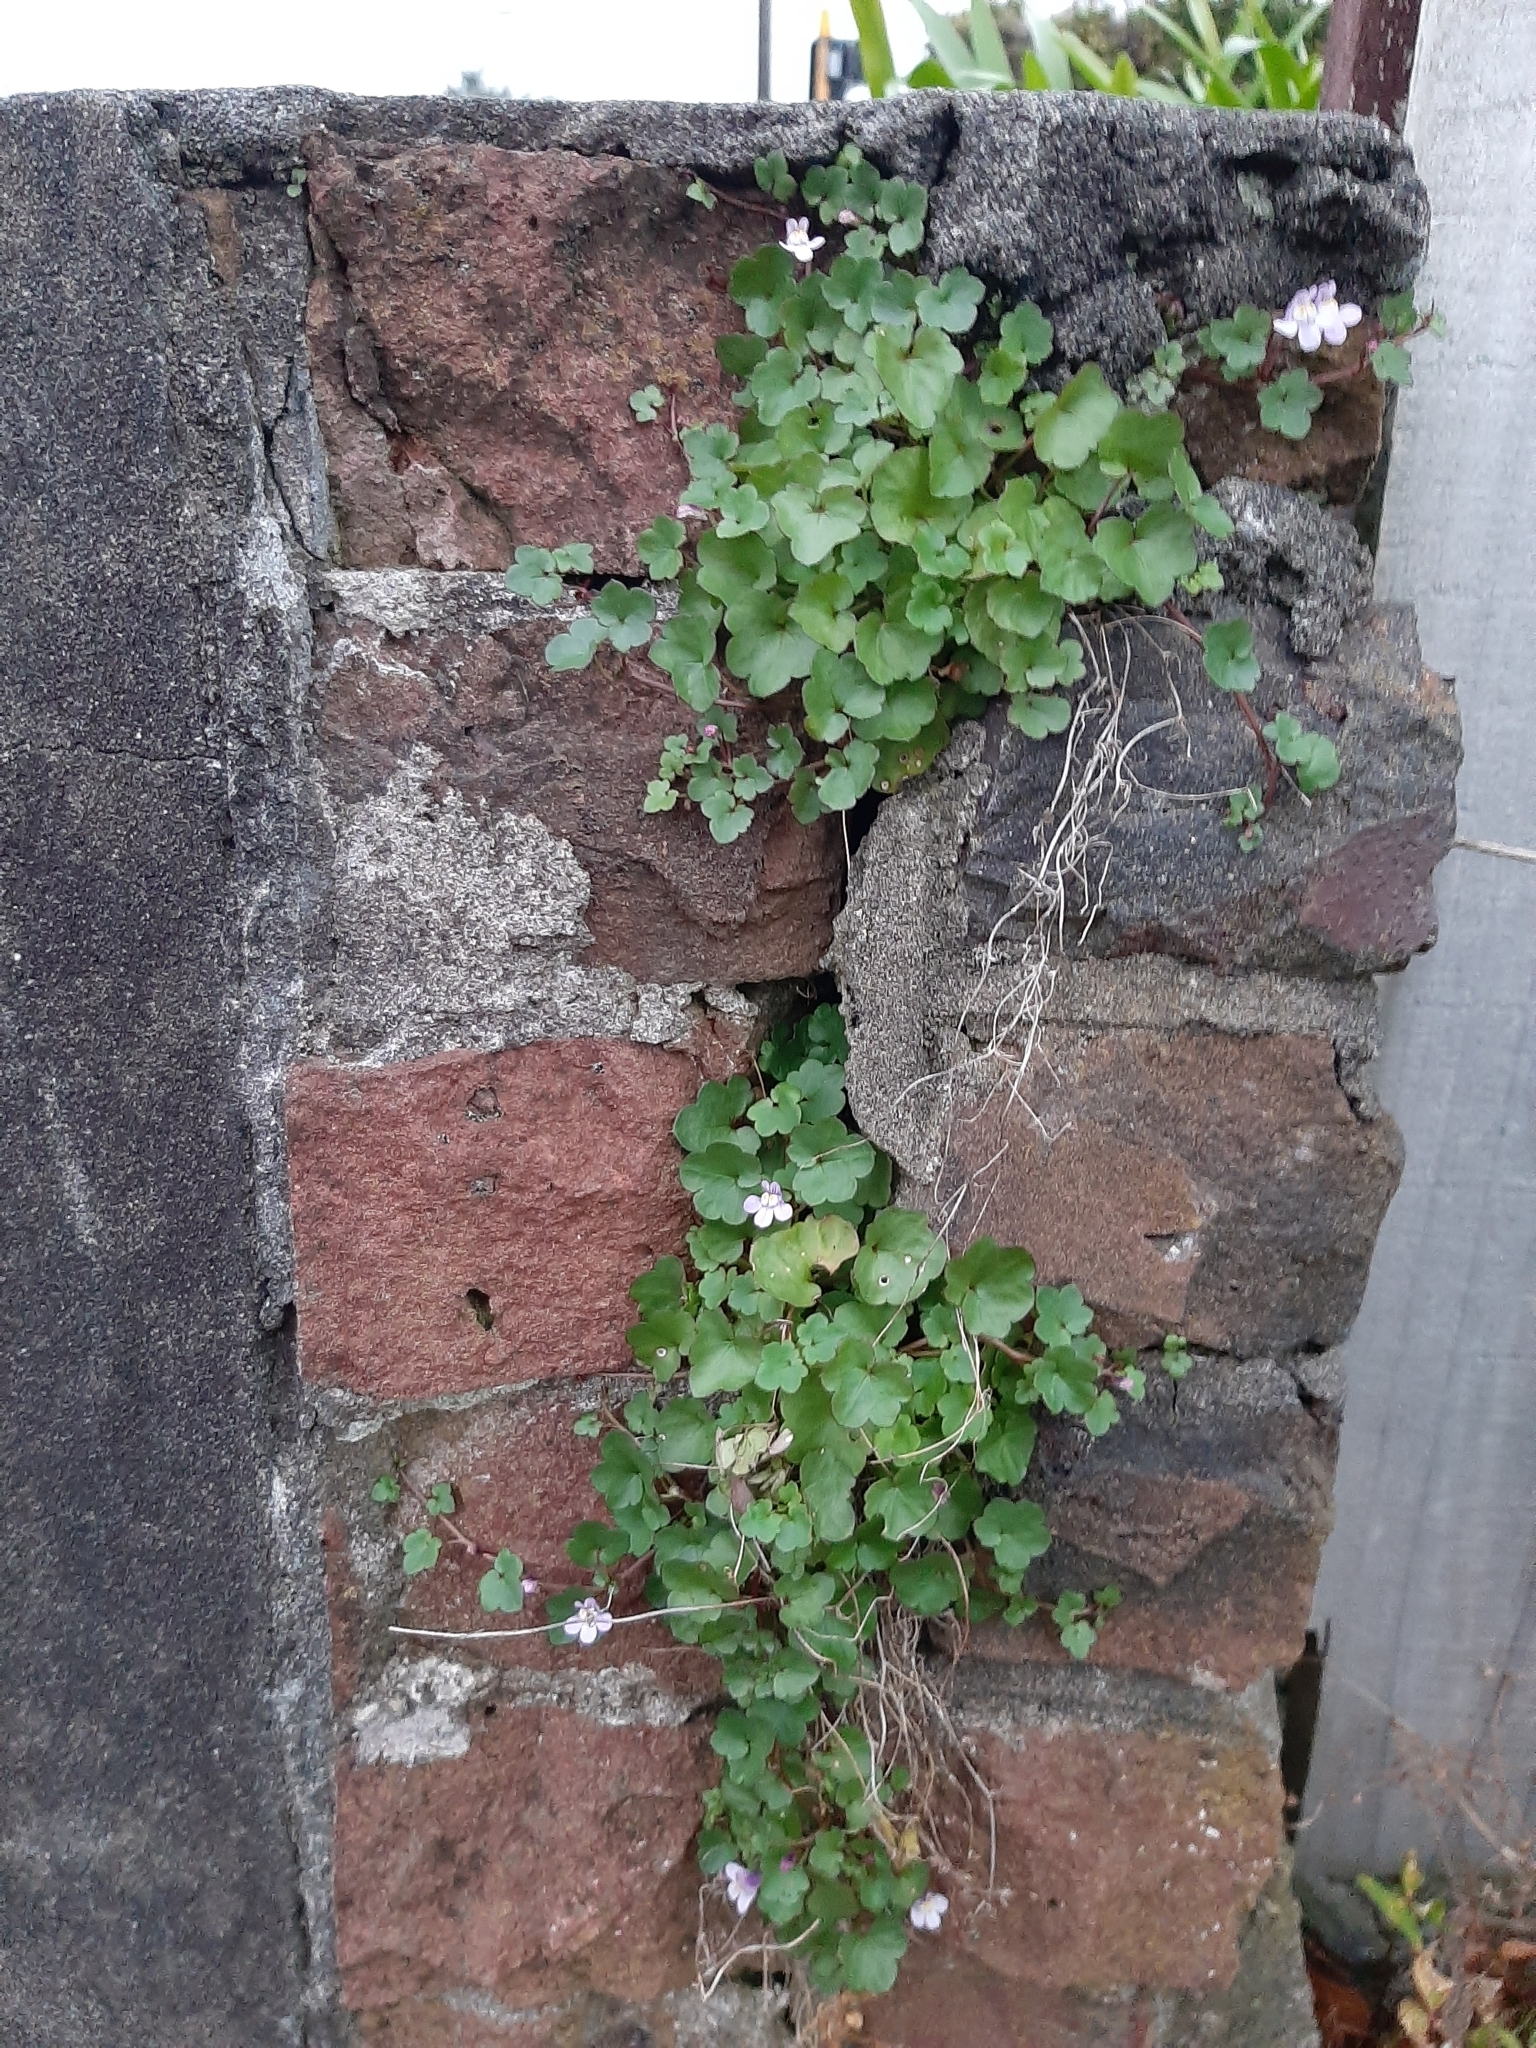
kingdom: Plantae
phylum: Tracheophyta
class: Magnoliopsida
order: Lamiales
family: Plantaginaceae
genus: Cymbalaria
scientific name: Cymbalaria muralis
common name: Ivy-leaved toadflax
